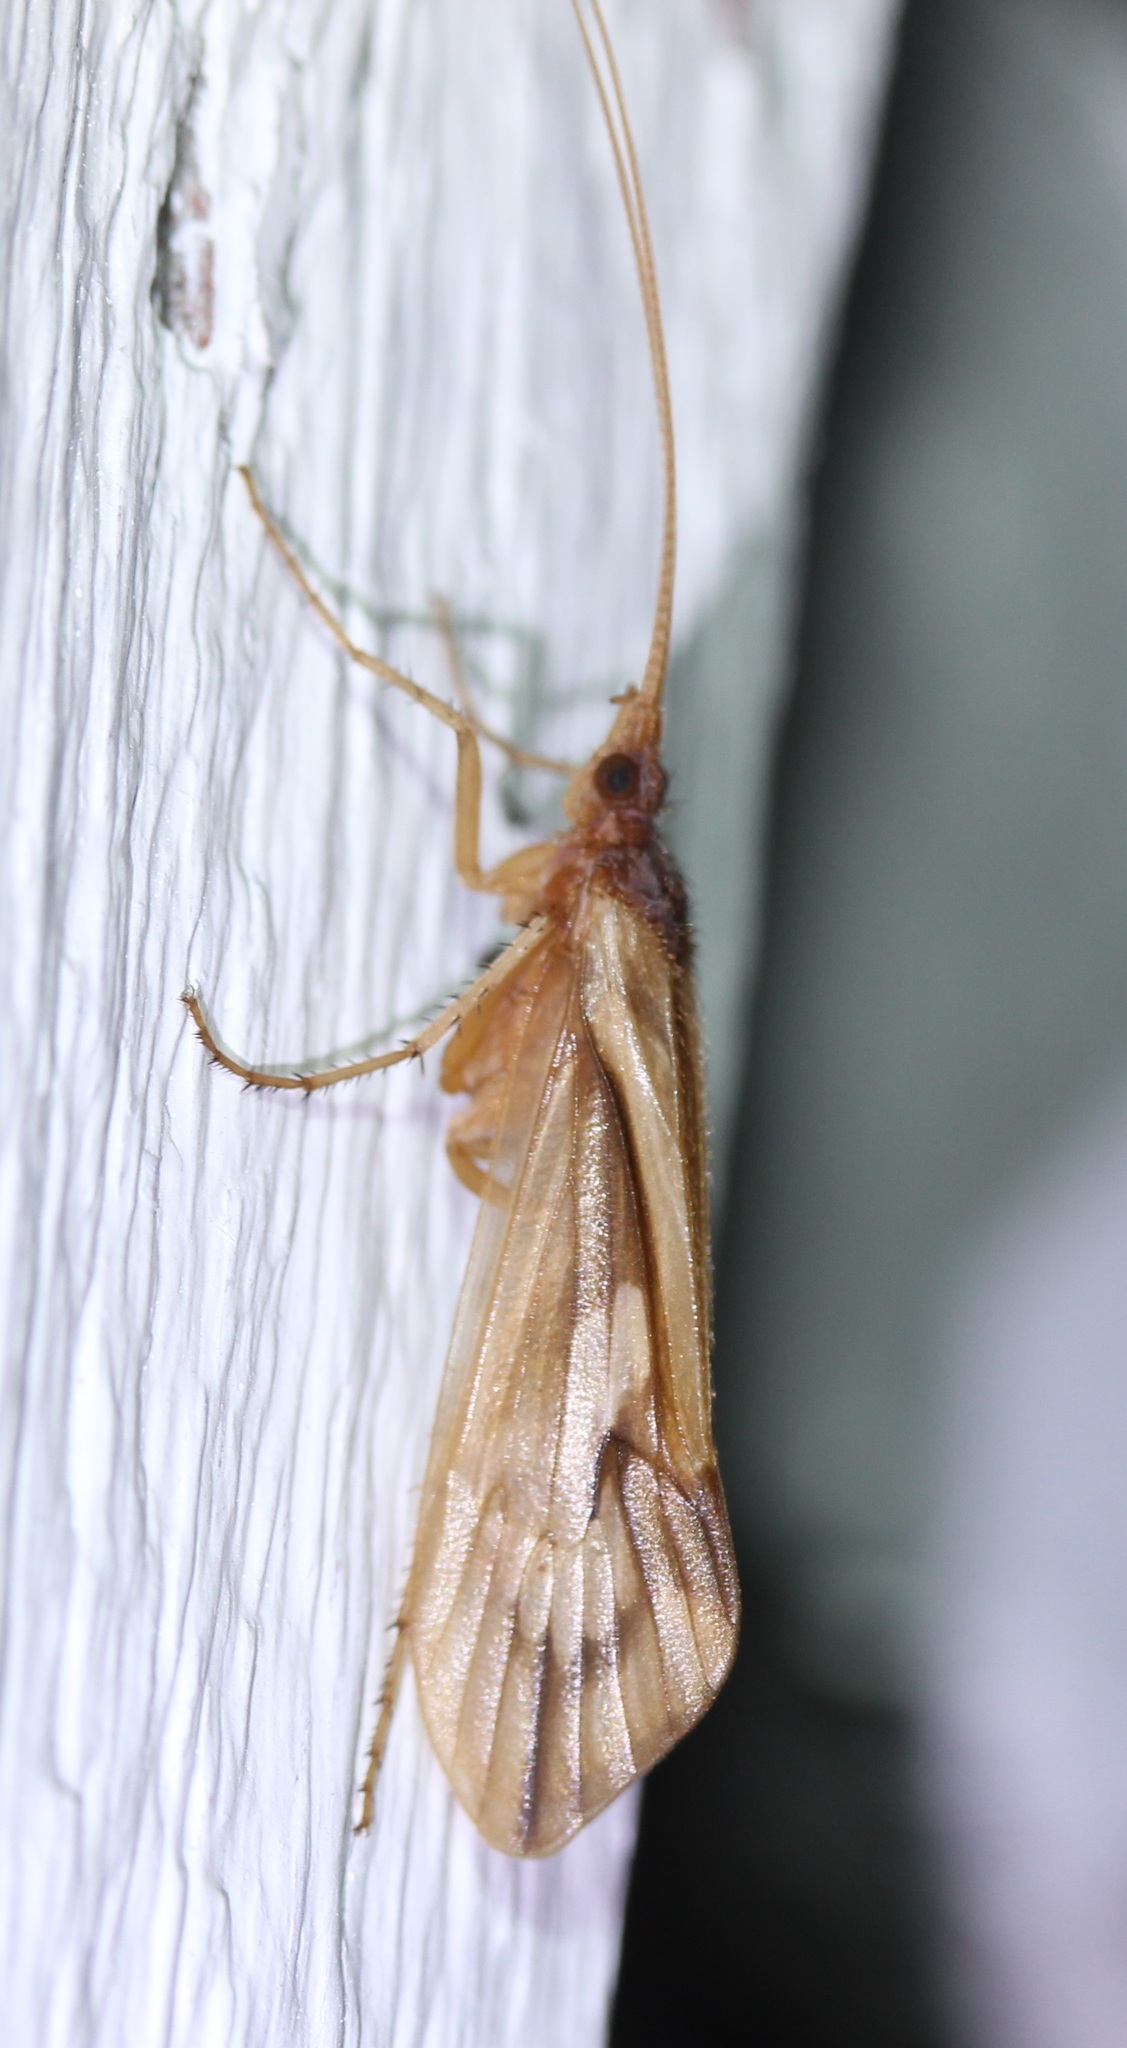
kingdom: Animalia
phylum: Arthropoda
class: Insecta
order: Trichoptera
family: Limnephilidae
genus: Platycentropus
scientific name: Platycentropus radiatus
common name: Chocolate-and-cream sedge
